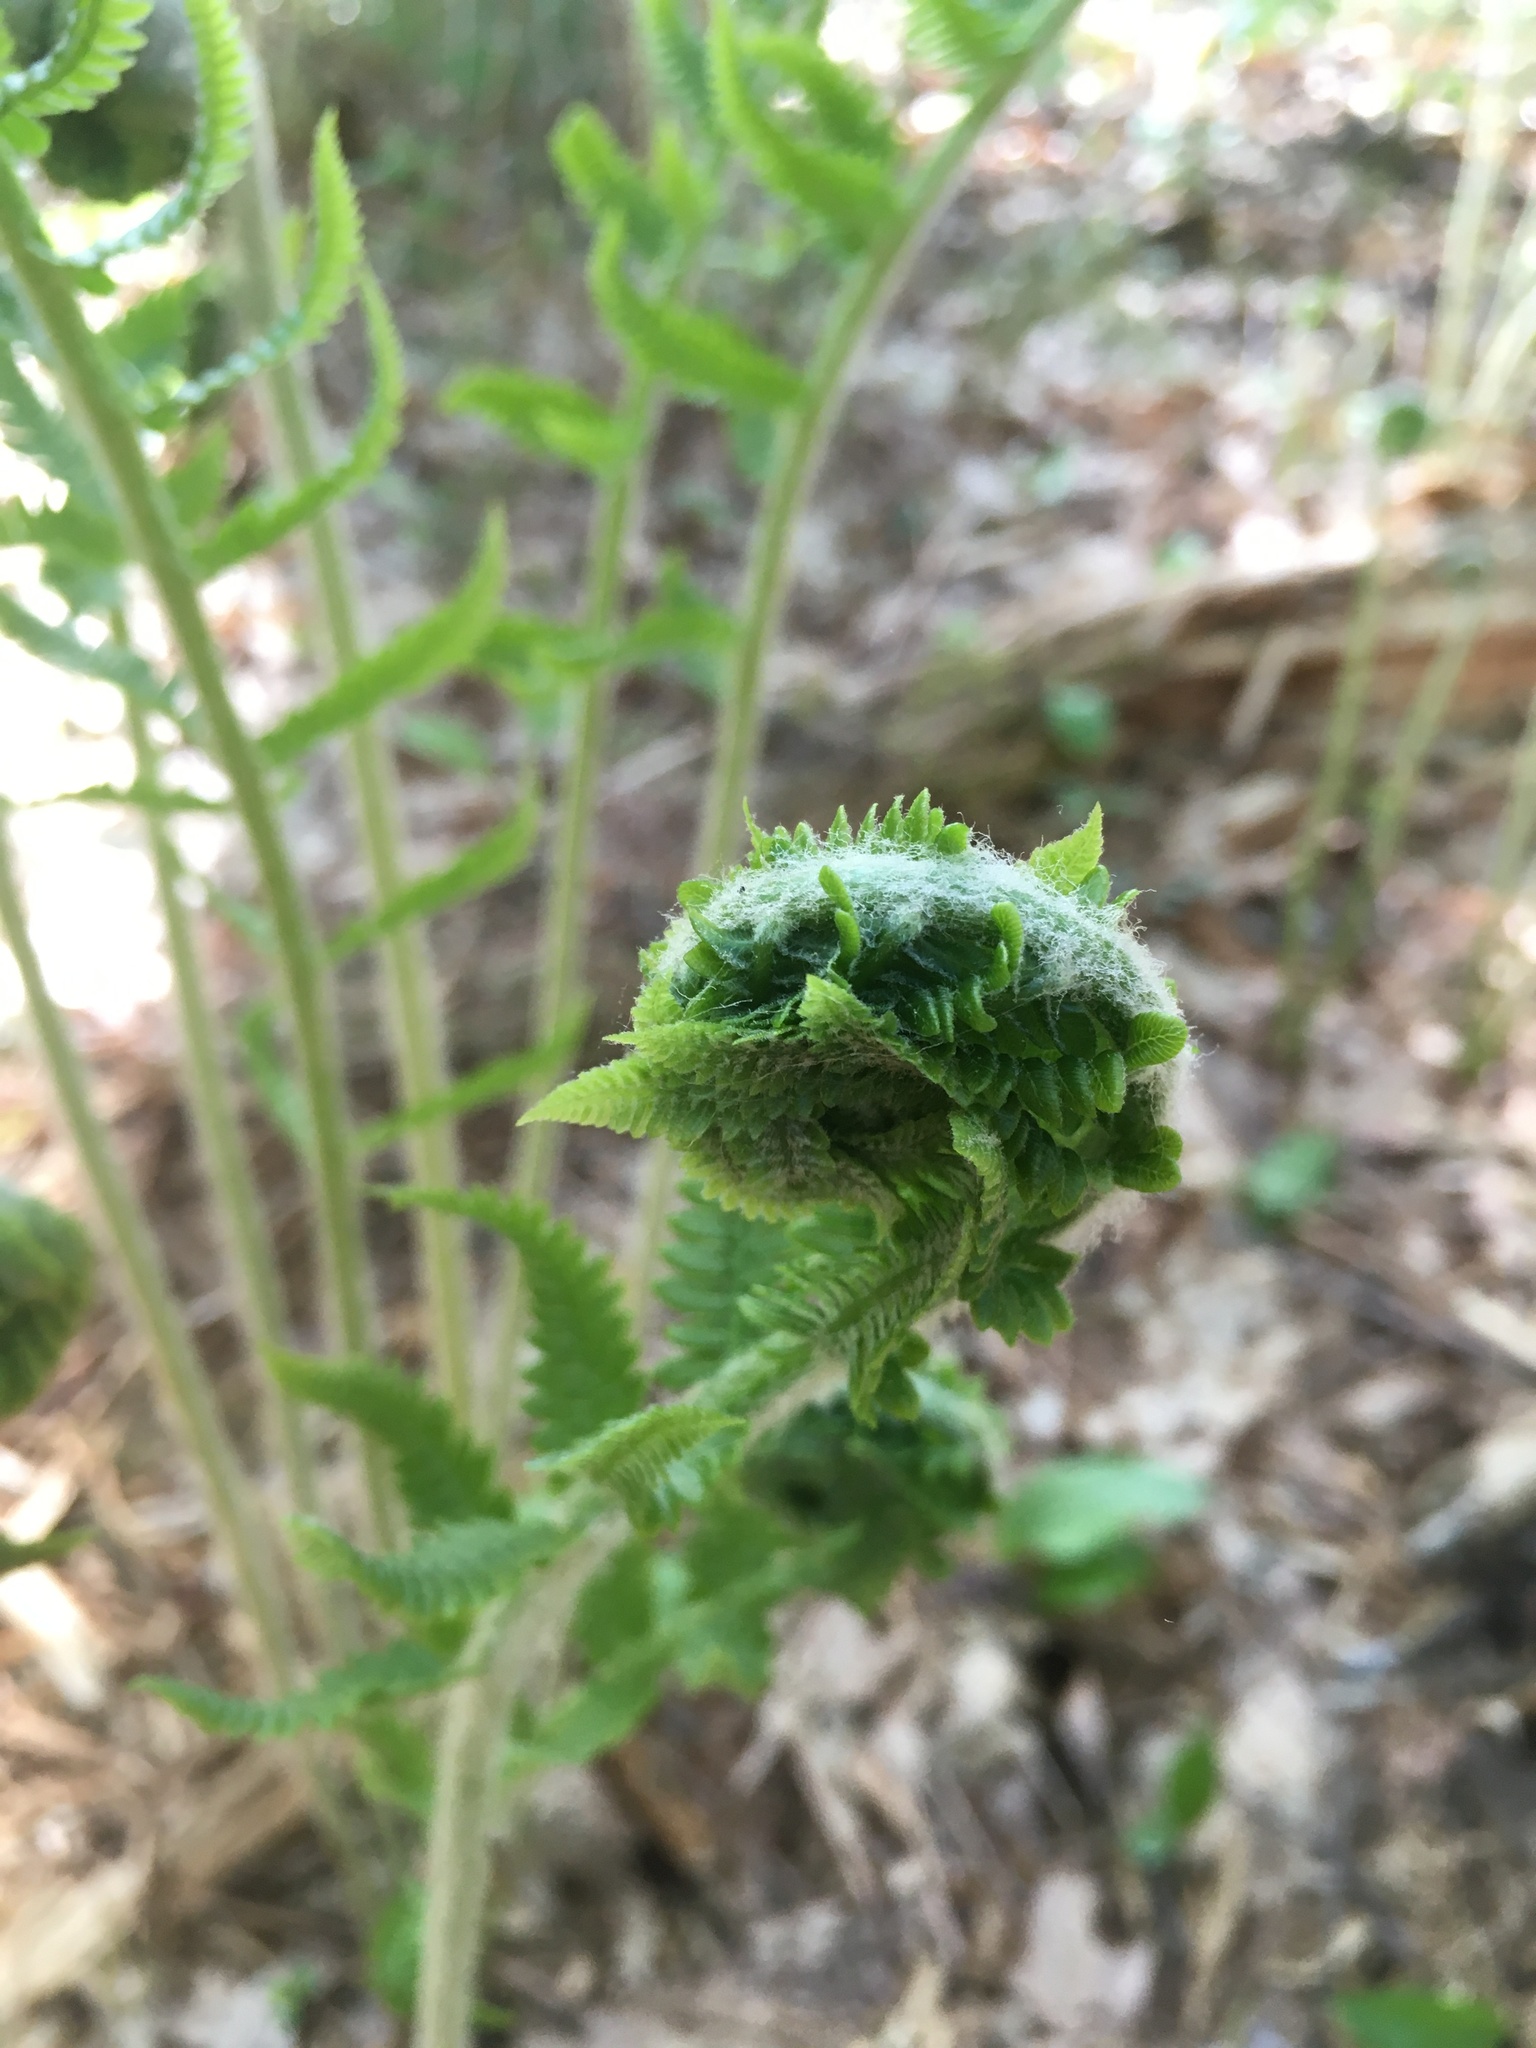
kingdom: Plantae
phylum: Tracheophyta
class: Polypodiopsida
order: Osmundales
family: Osmundaceae
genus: Osmundastrum
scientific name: Osmundastrum cinnamomeum
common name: Cinnamon fern
